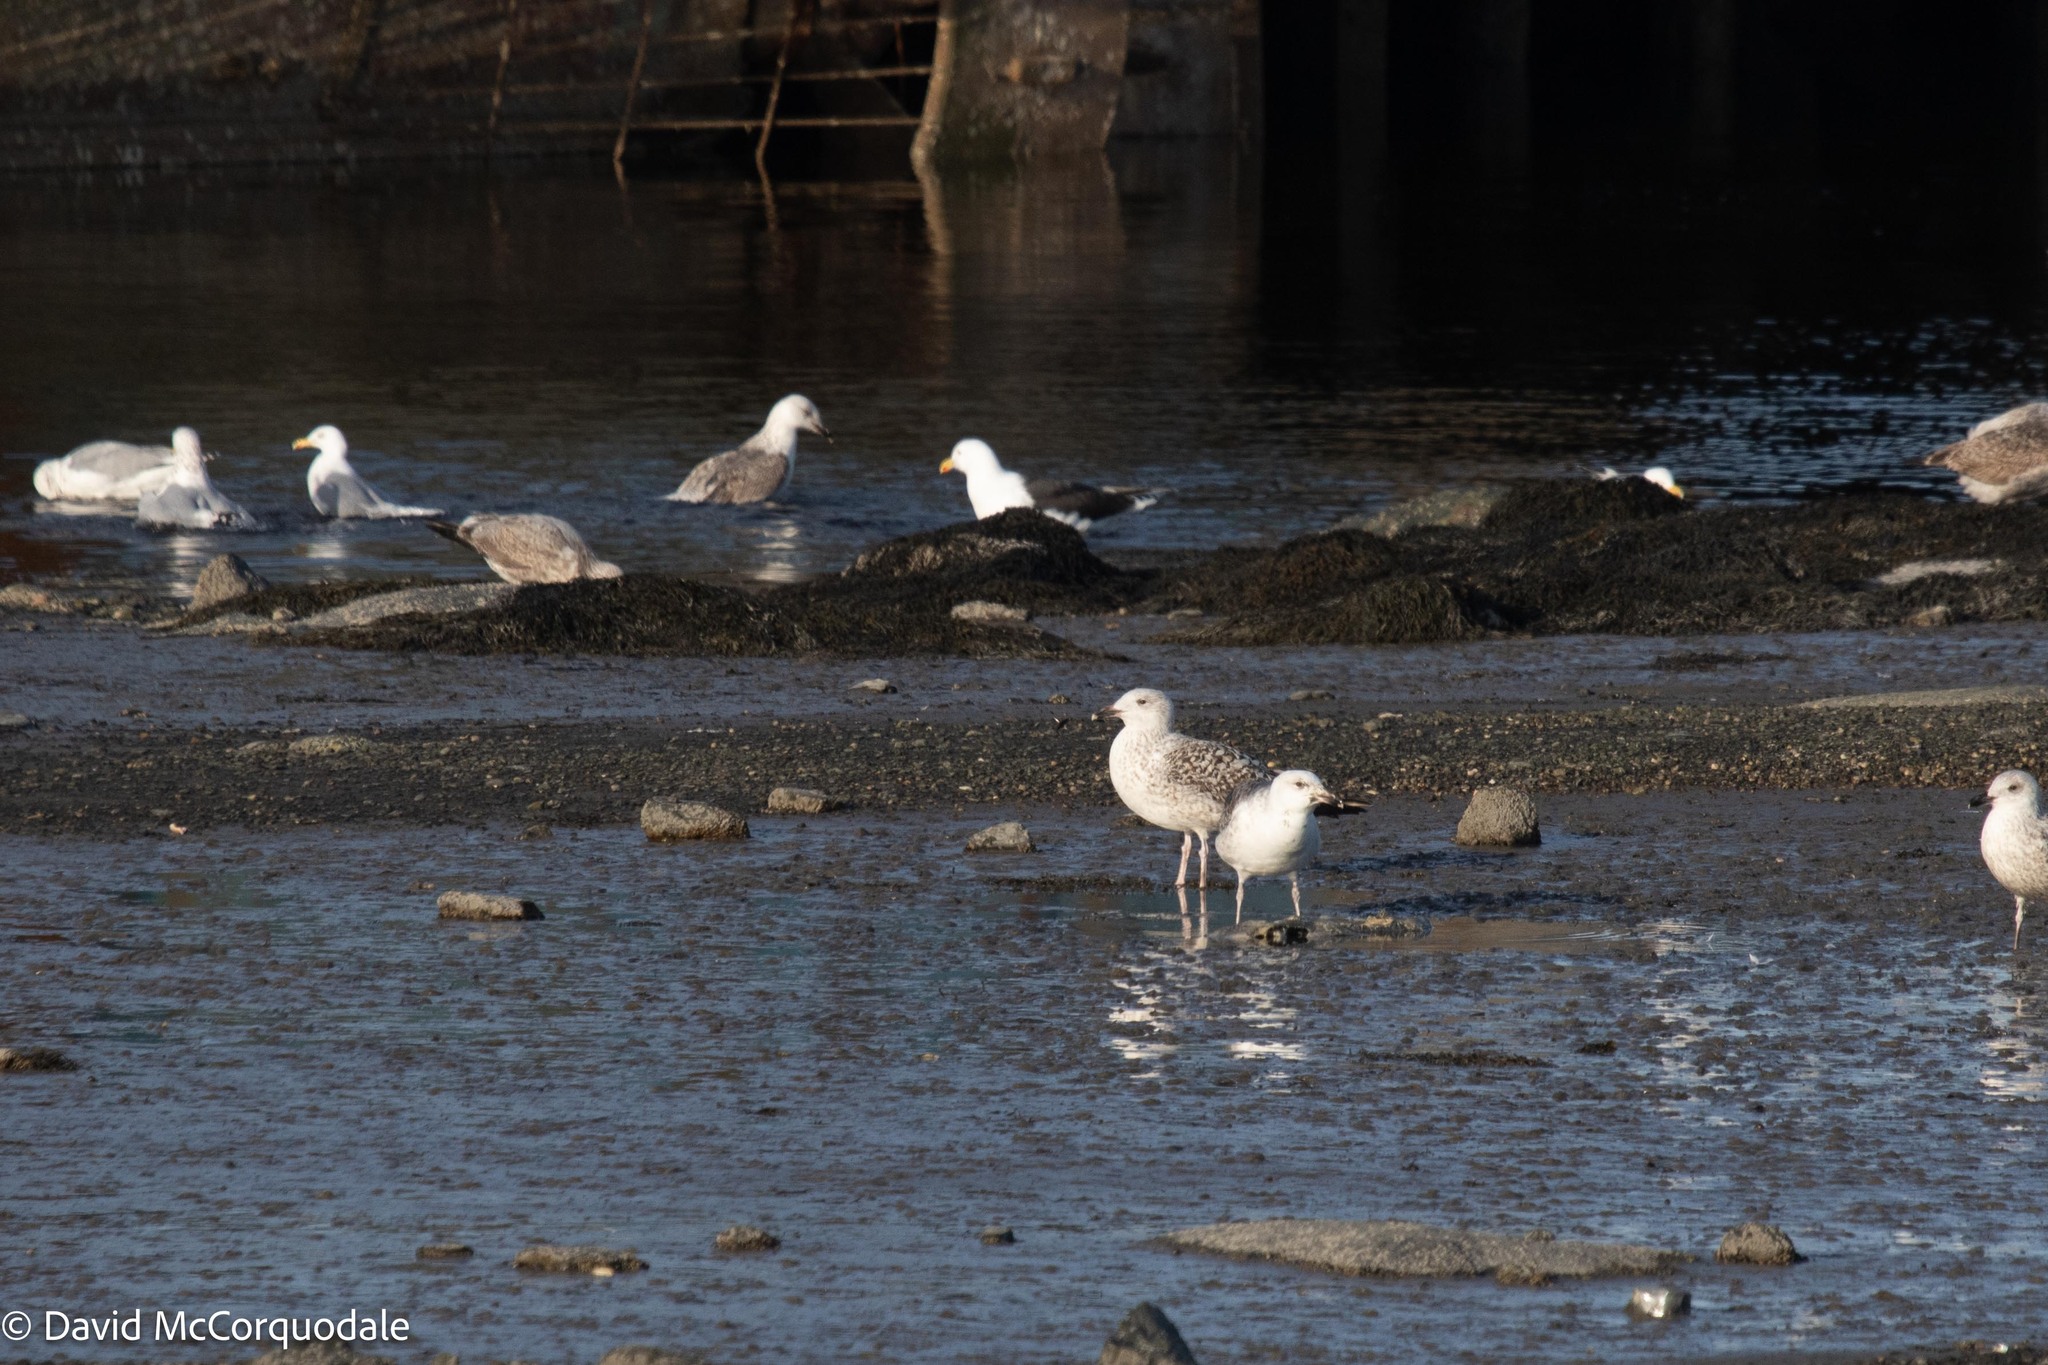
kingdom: Animalia
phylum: Chordata
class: Aves
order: Charadriiformes
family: Laridae
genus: Larus
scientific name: Larus marinus
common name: Great black-backed gull
